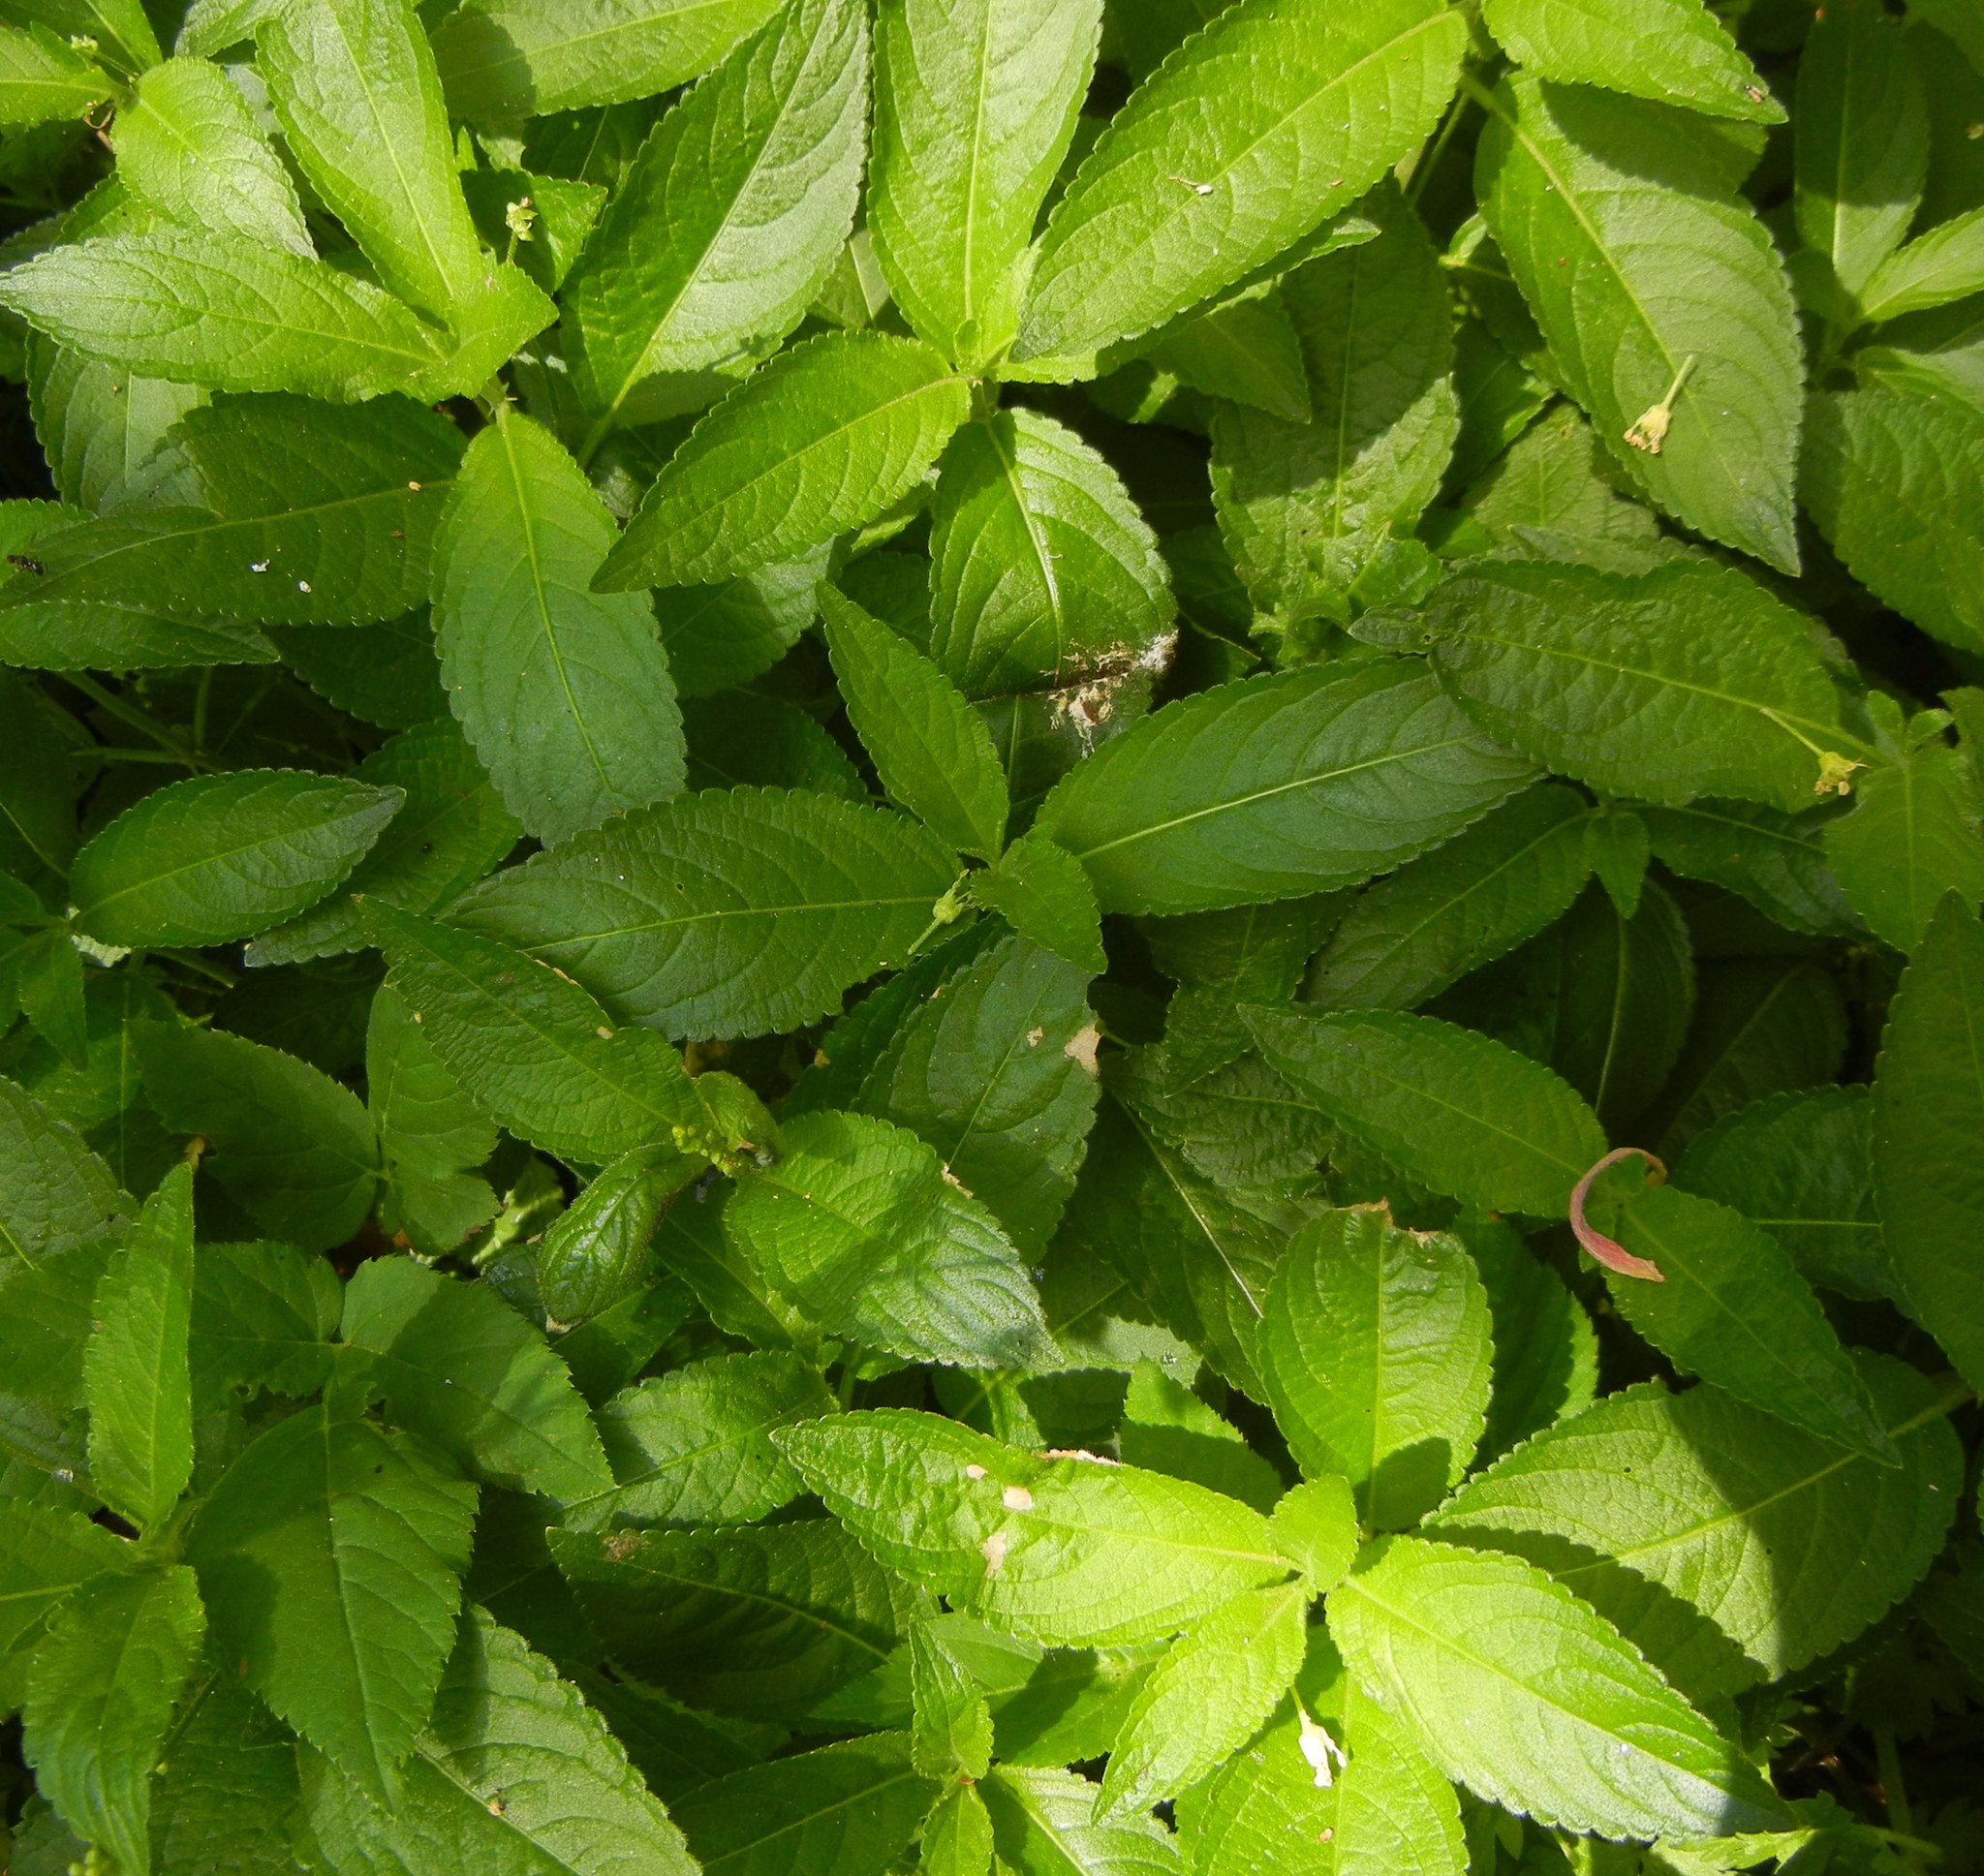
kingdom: Plantae
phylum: Tracheophyta
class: Magnoliopsida
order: Malpighiales
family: Euphorbiaceae
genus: Mercurialis
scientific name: Mercurialis perennis
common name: Dog mercury
